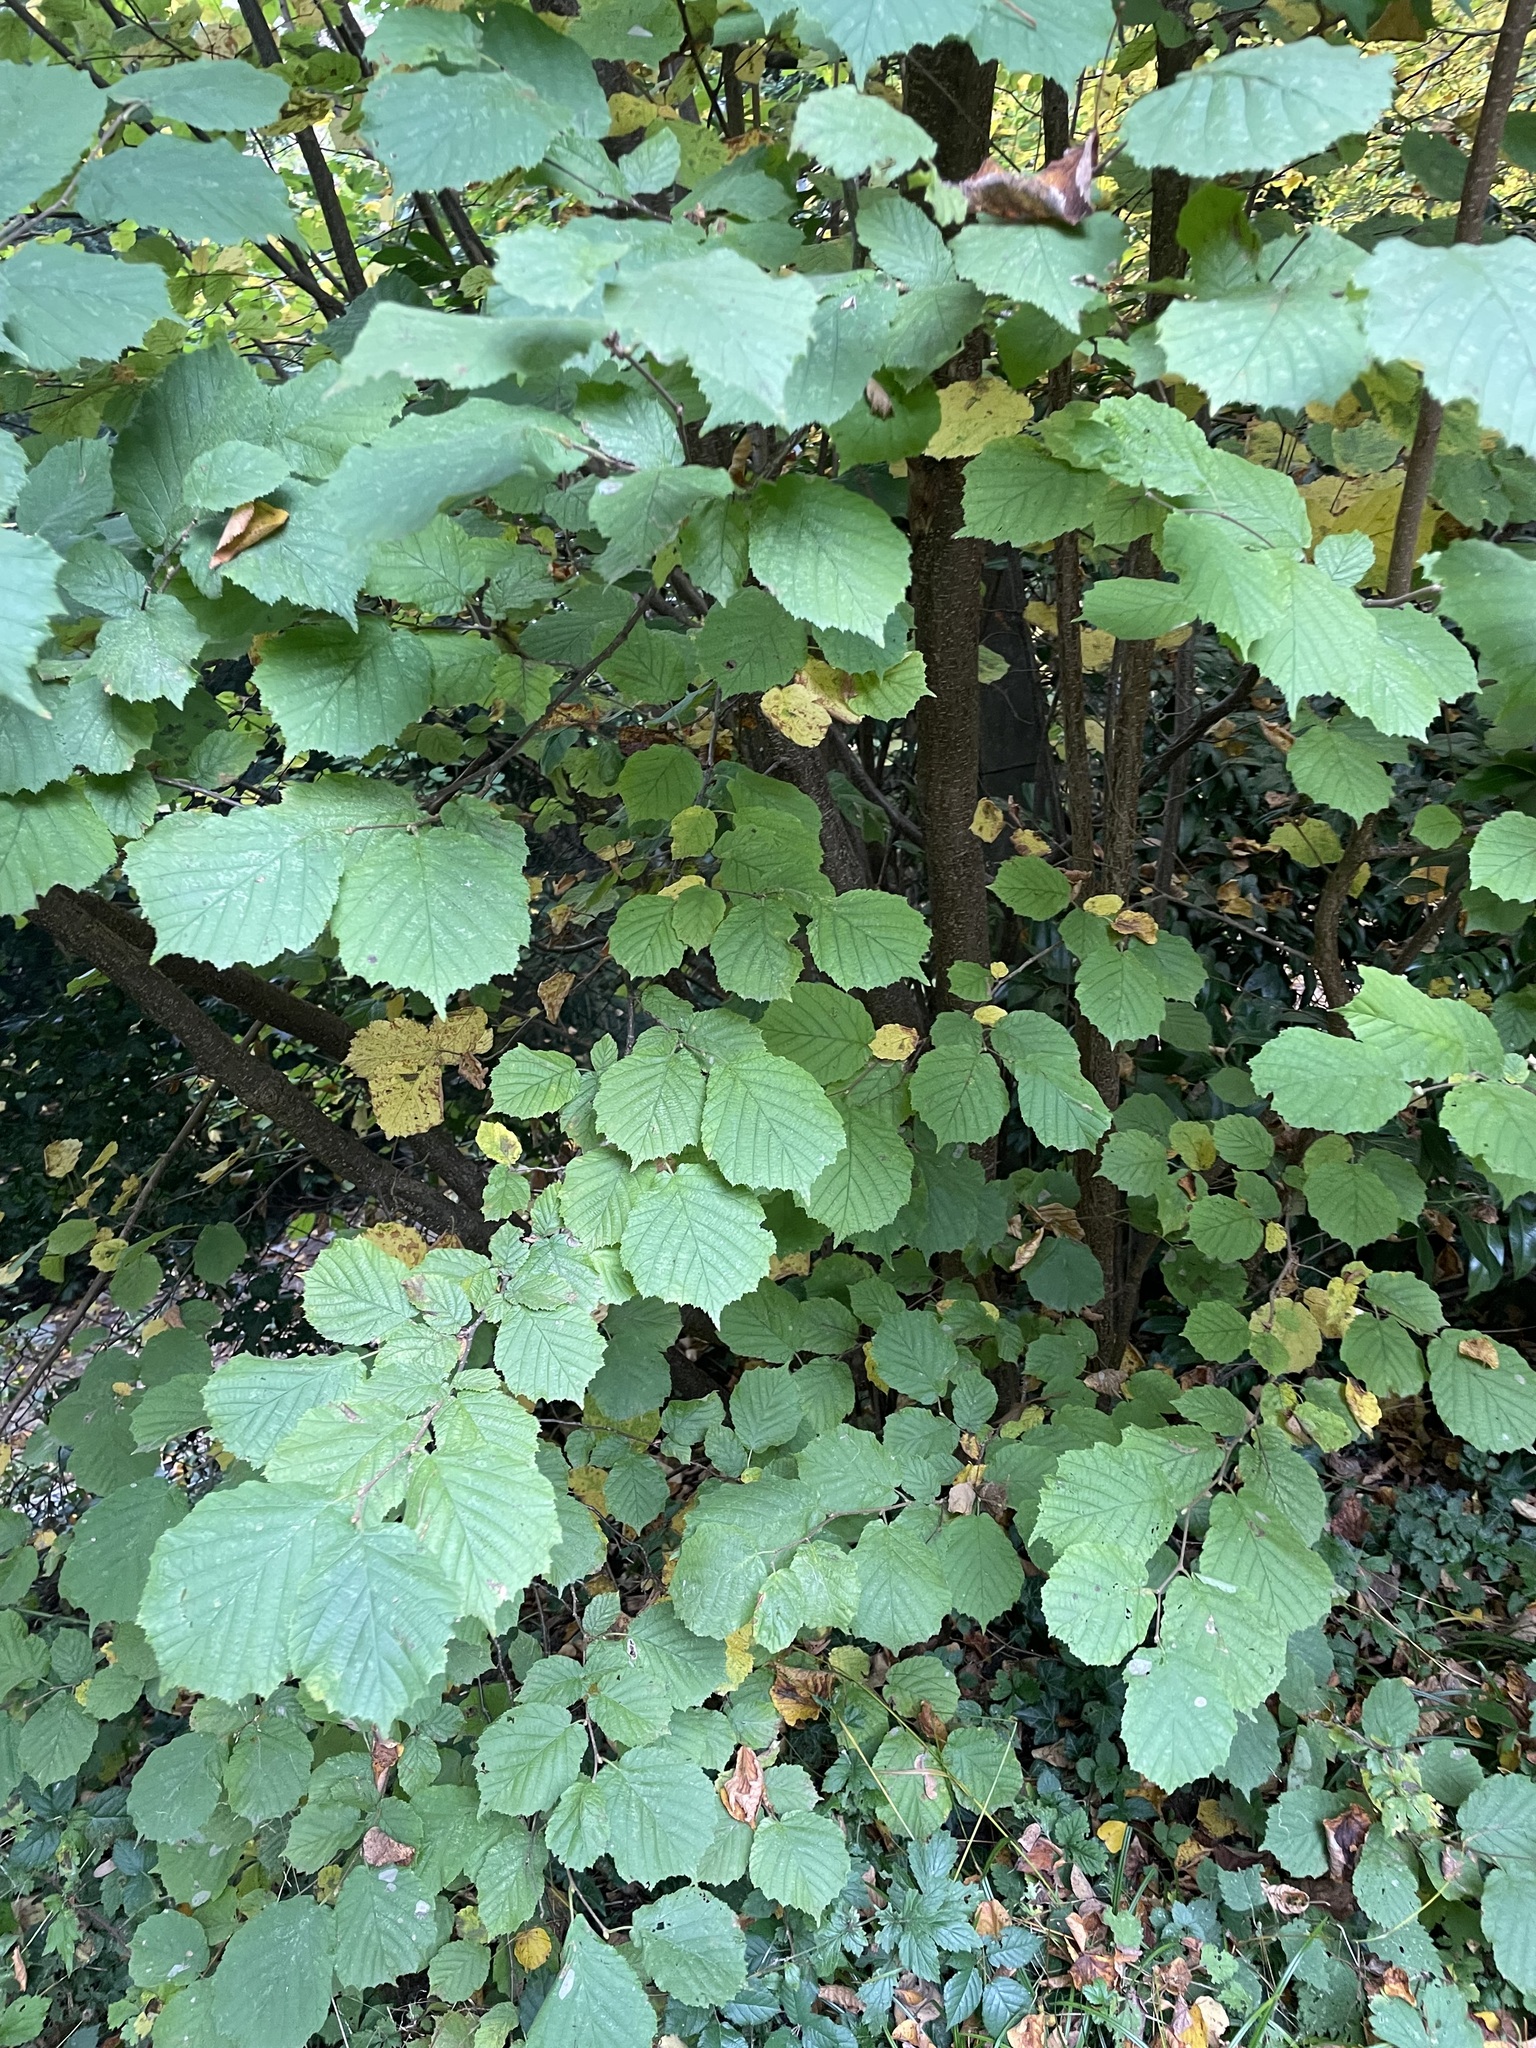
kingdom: Plantae
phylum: Tracheophyta
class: Magnoliopsida
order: Fagales
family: Betulaceae
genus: Corylus
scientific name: Corylus avellana
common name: European hazel
